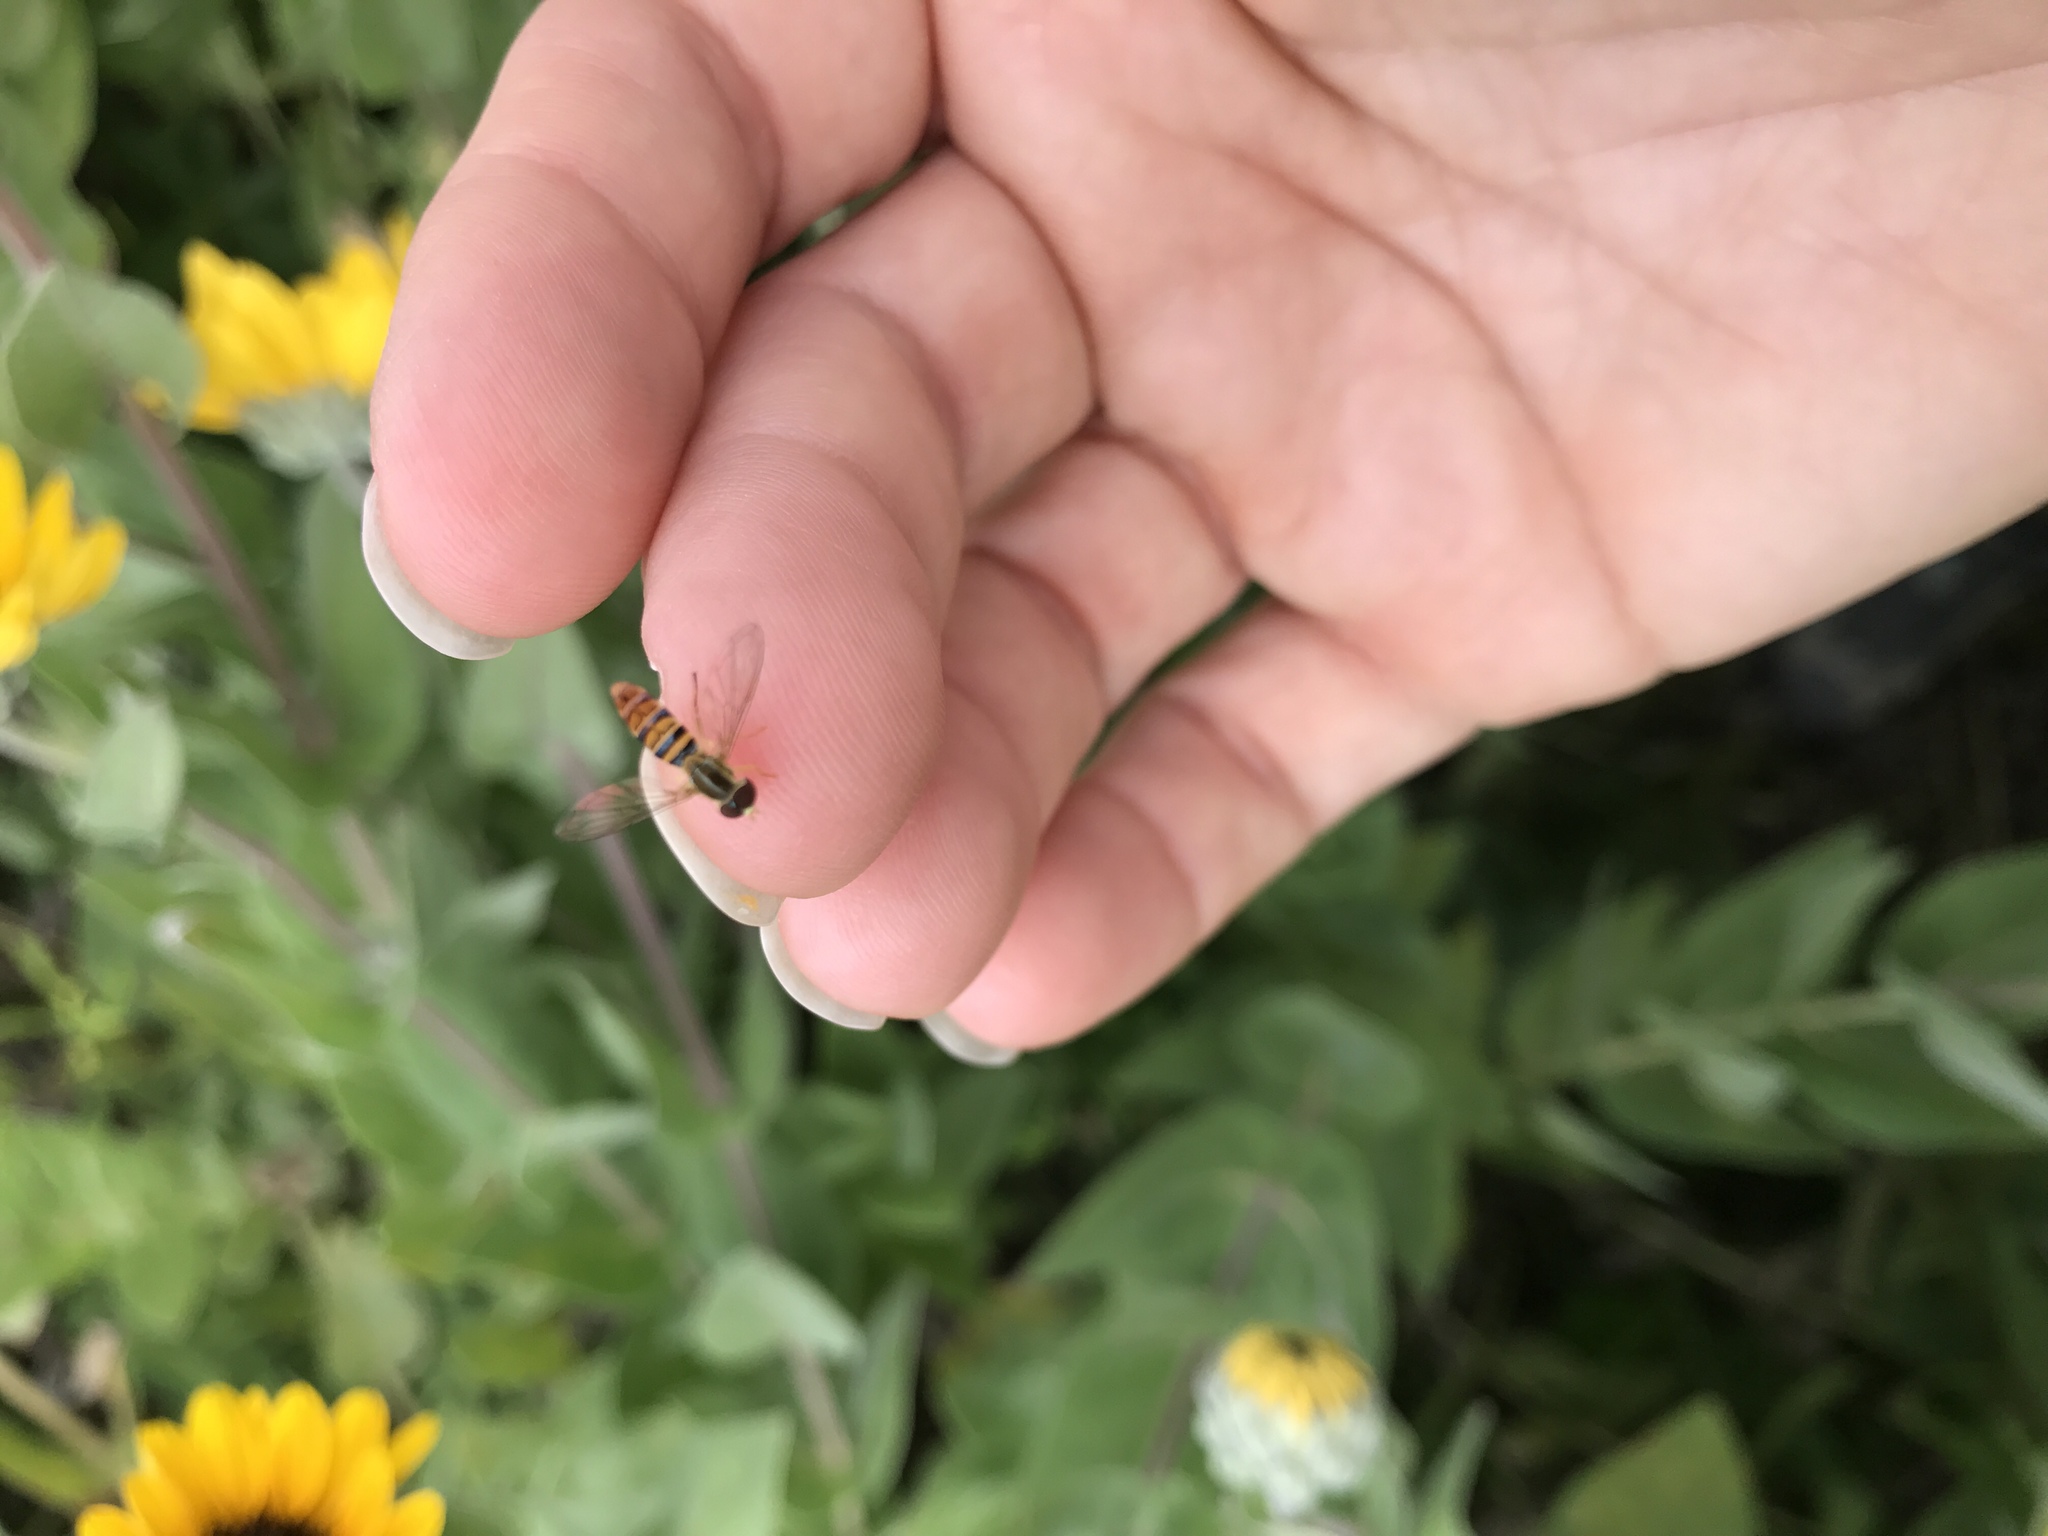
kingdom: Animalia
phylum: Arthropoda
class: Insecta
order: Diptera
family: Syrphidae
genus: Toxomerus
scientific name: Toxomerus politus
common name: Maize calligrapher
